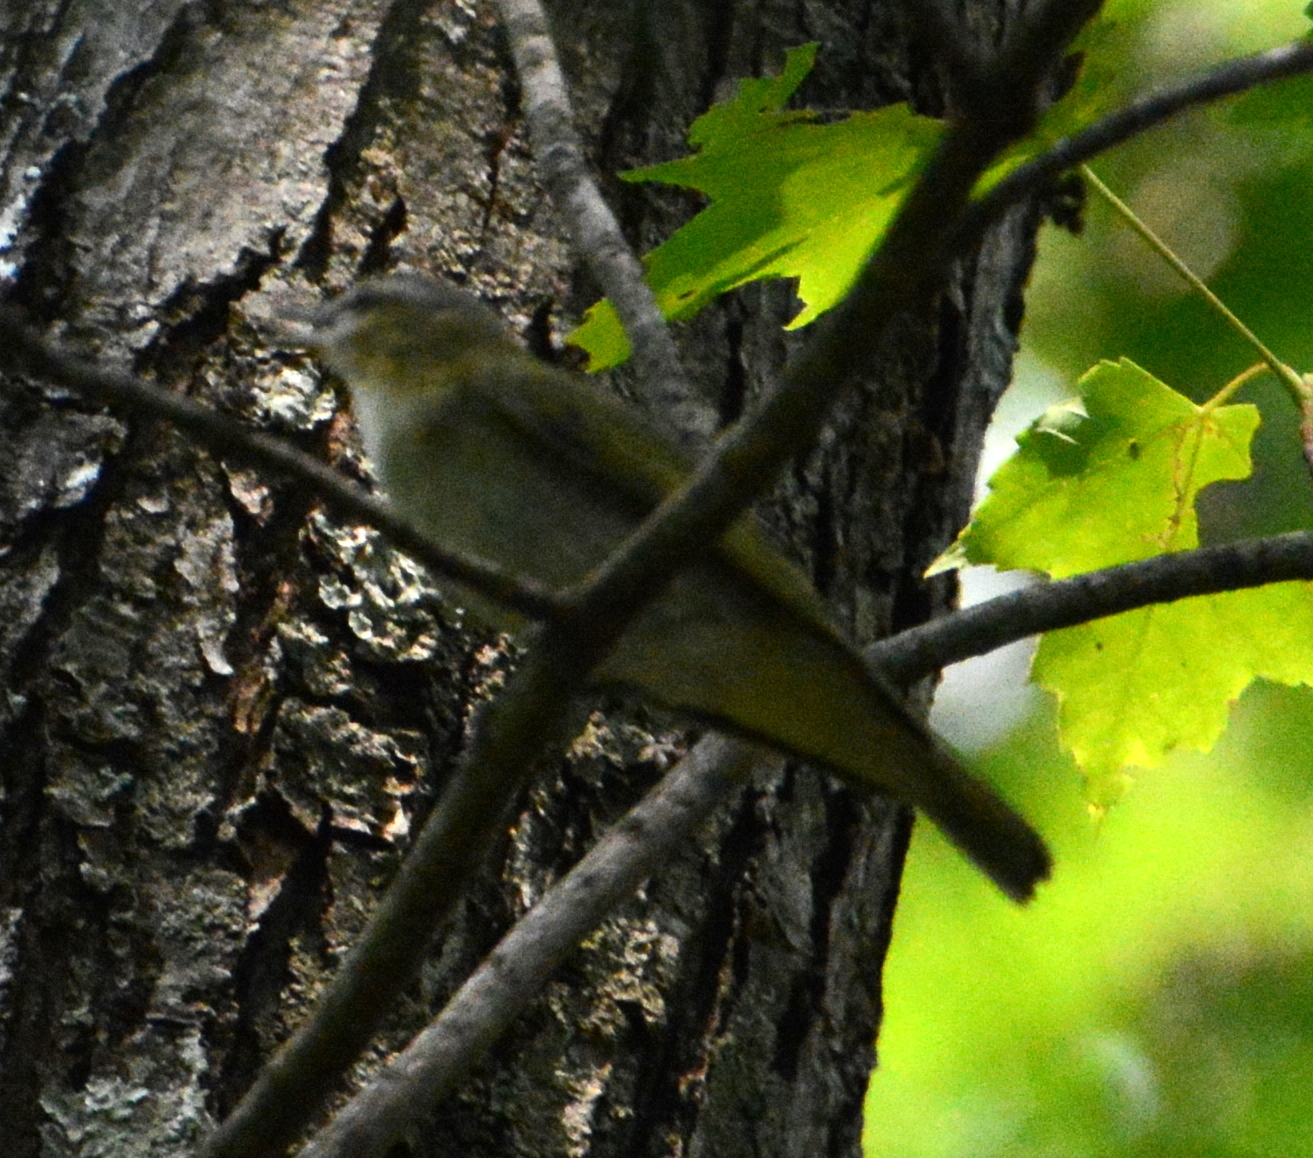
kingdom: Animalia
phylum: Chordata
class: Aves
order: Passeriformes
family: Vireonidae
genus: Vireo
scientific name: Vireo olivaceus
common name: Red-eyed vireo
